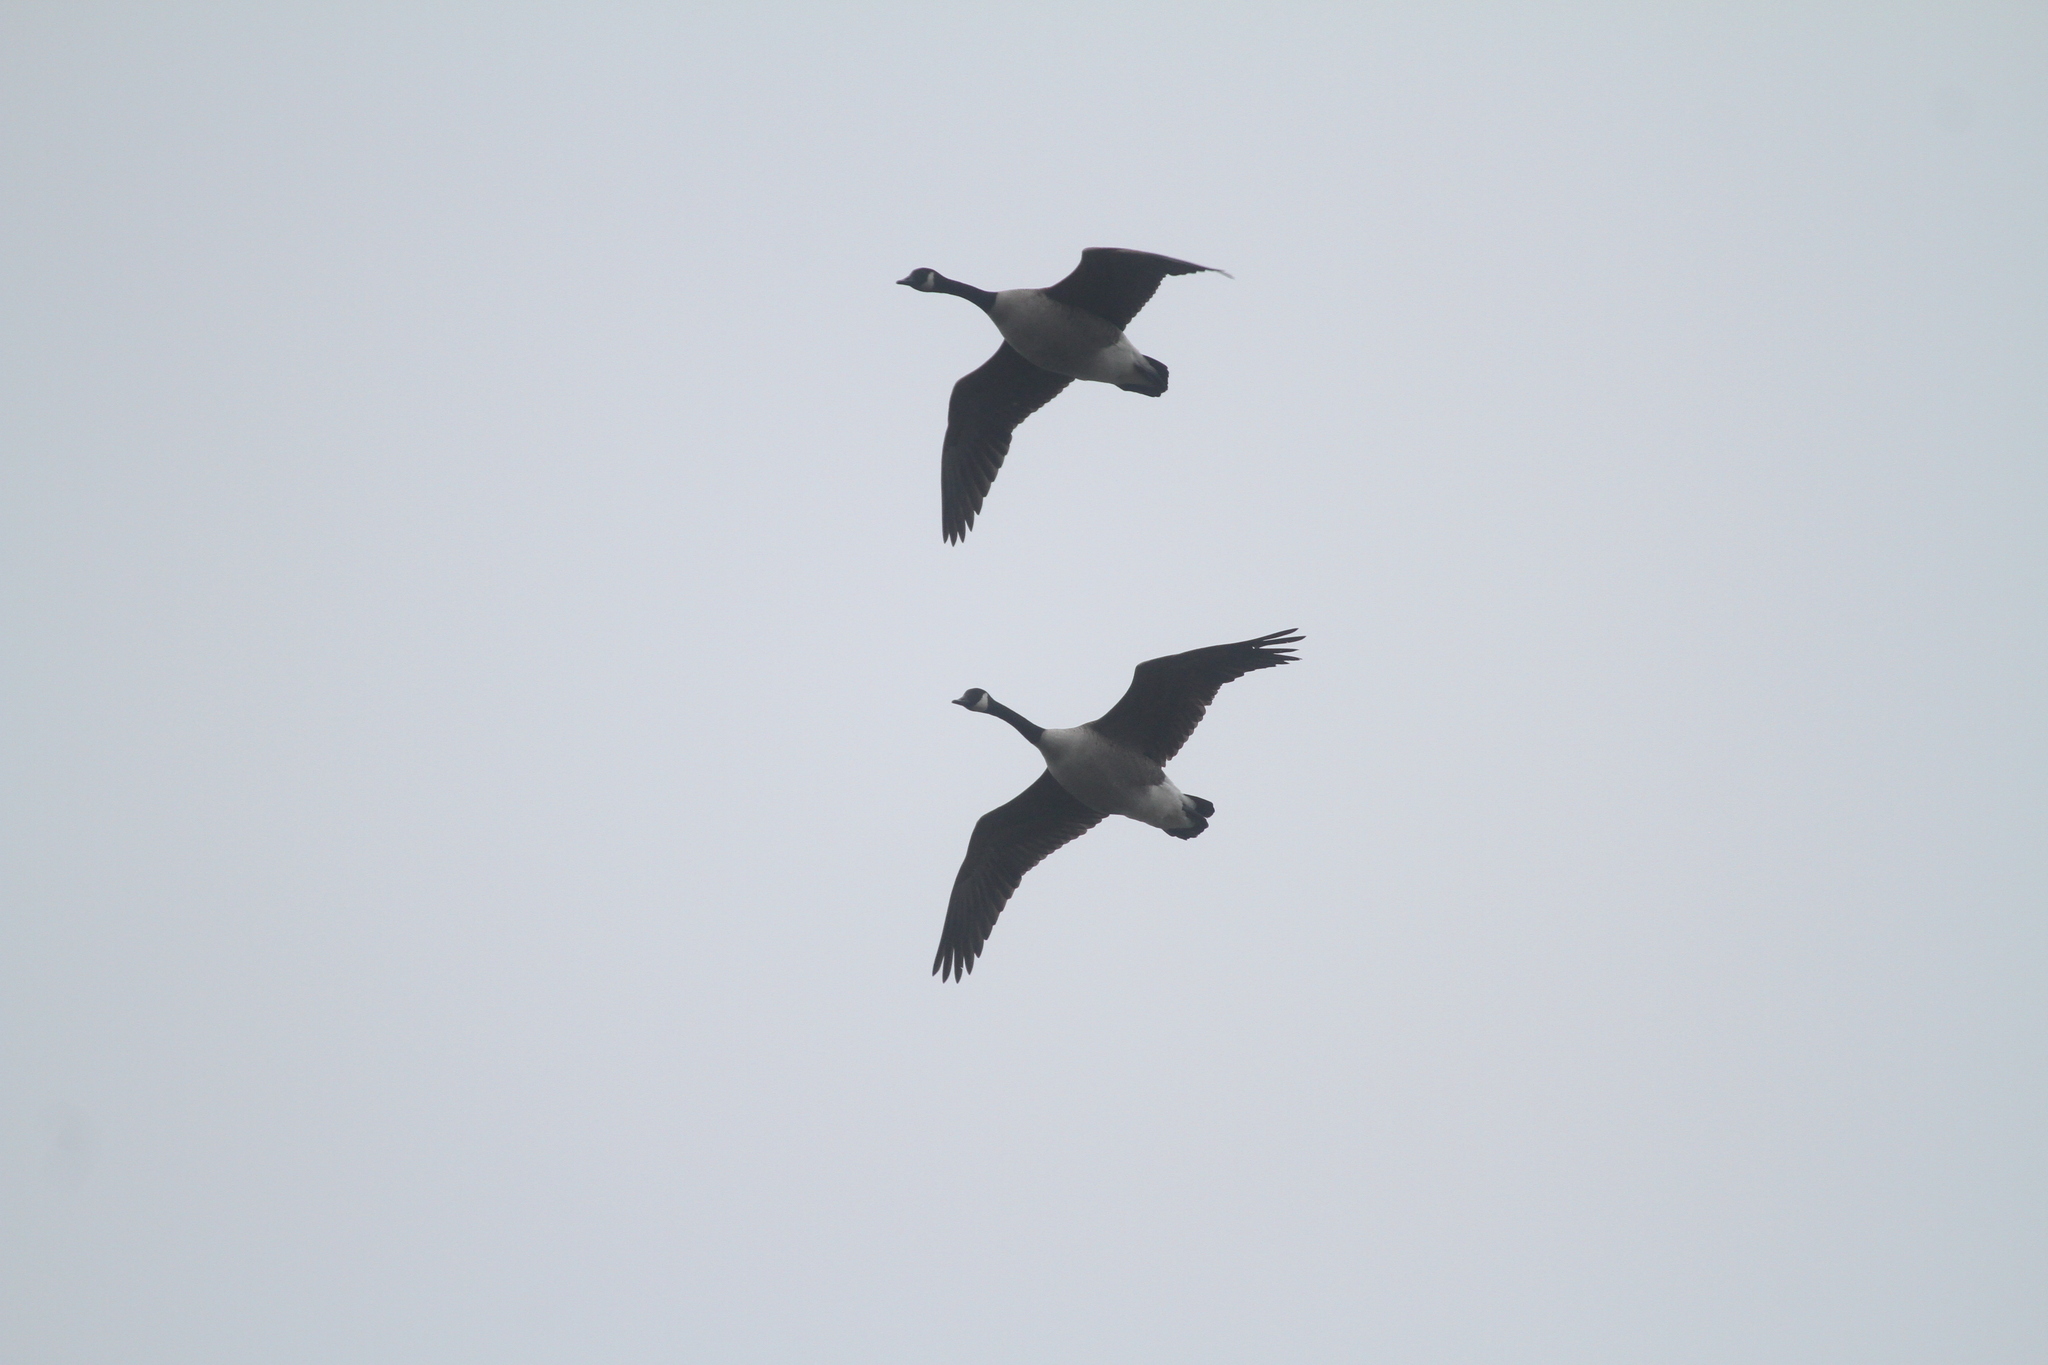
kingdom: Animalia
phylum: Chordata
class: Aves
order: Anseriformes
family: Anatidae
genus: Branta
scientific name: Branta canadensis
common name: Canada goose
